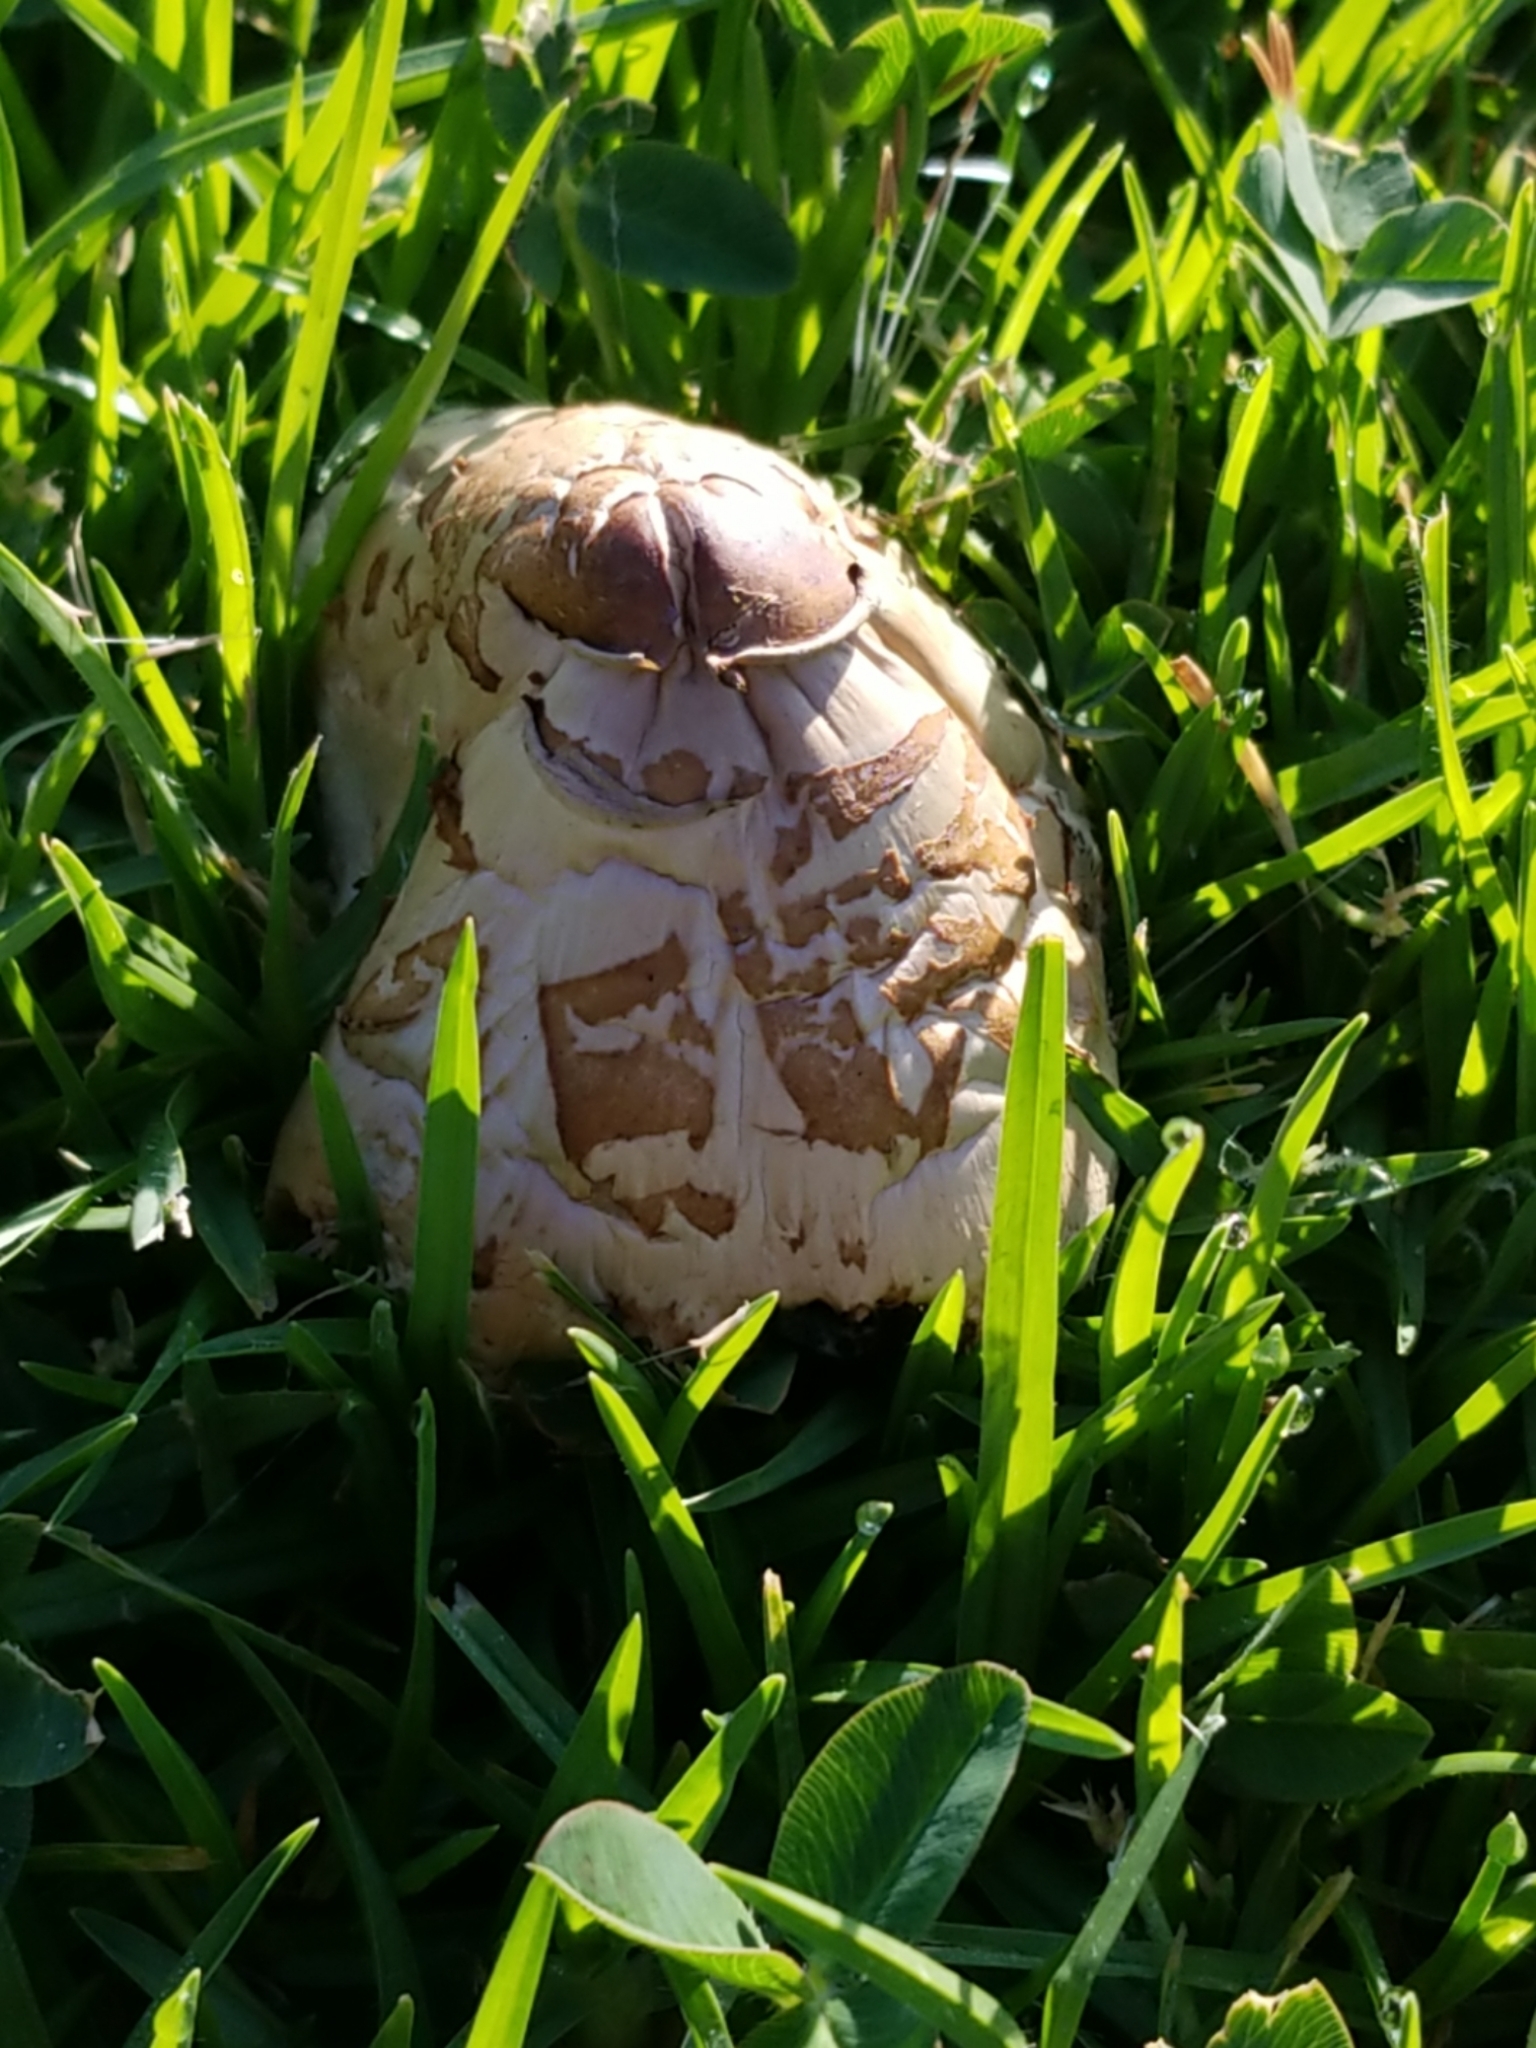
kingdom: Fungi
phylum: Basidiomycota
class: Agaricomycetes
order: Agaricales
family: Agaricaceae
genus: Chlorophyllum
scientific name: Chlorophyllum molybdites
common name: False parasol
